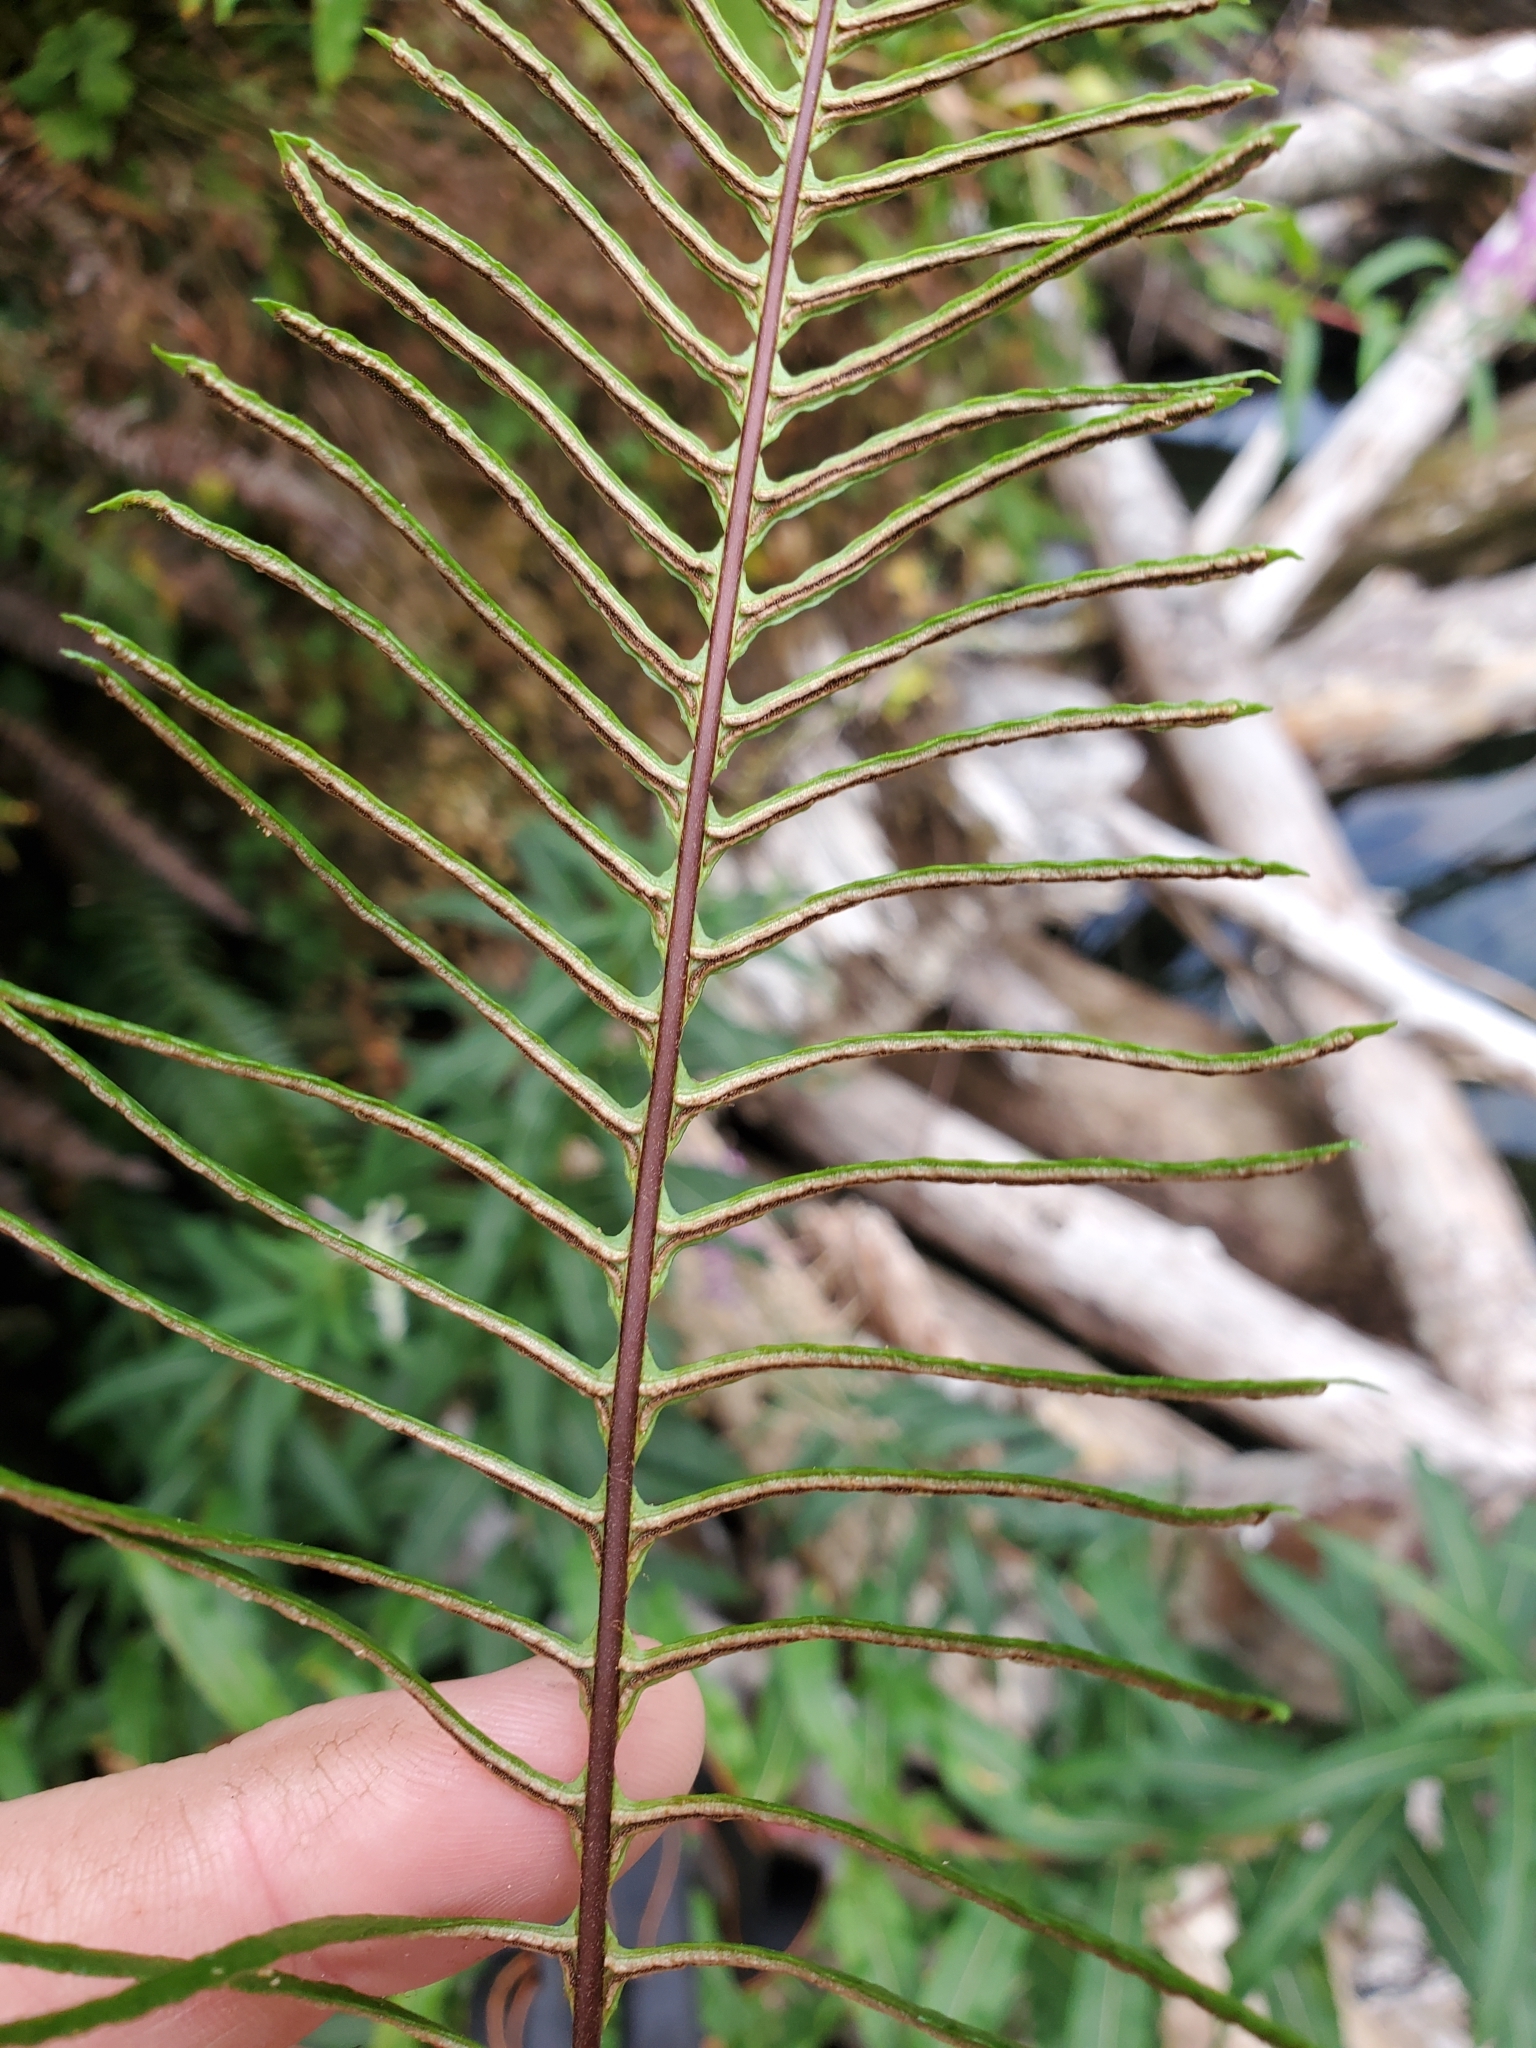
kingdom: Plantae
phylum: Tracheophyta
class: Polypodiopsida
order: Polypodiales
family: Blechnaceae
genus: Struthiopteris
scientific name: Struthiopteris spicant
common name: Deer fern
